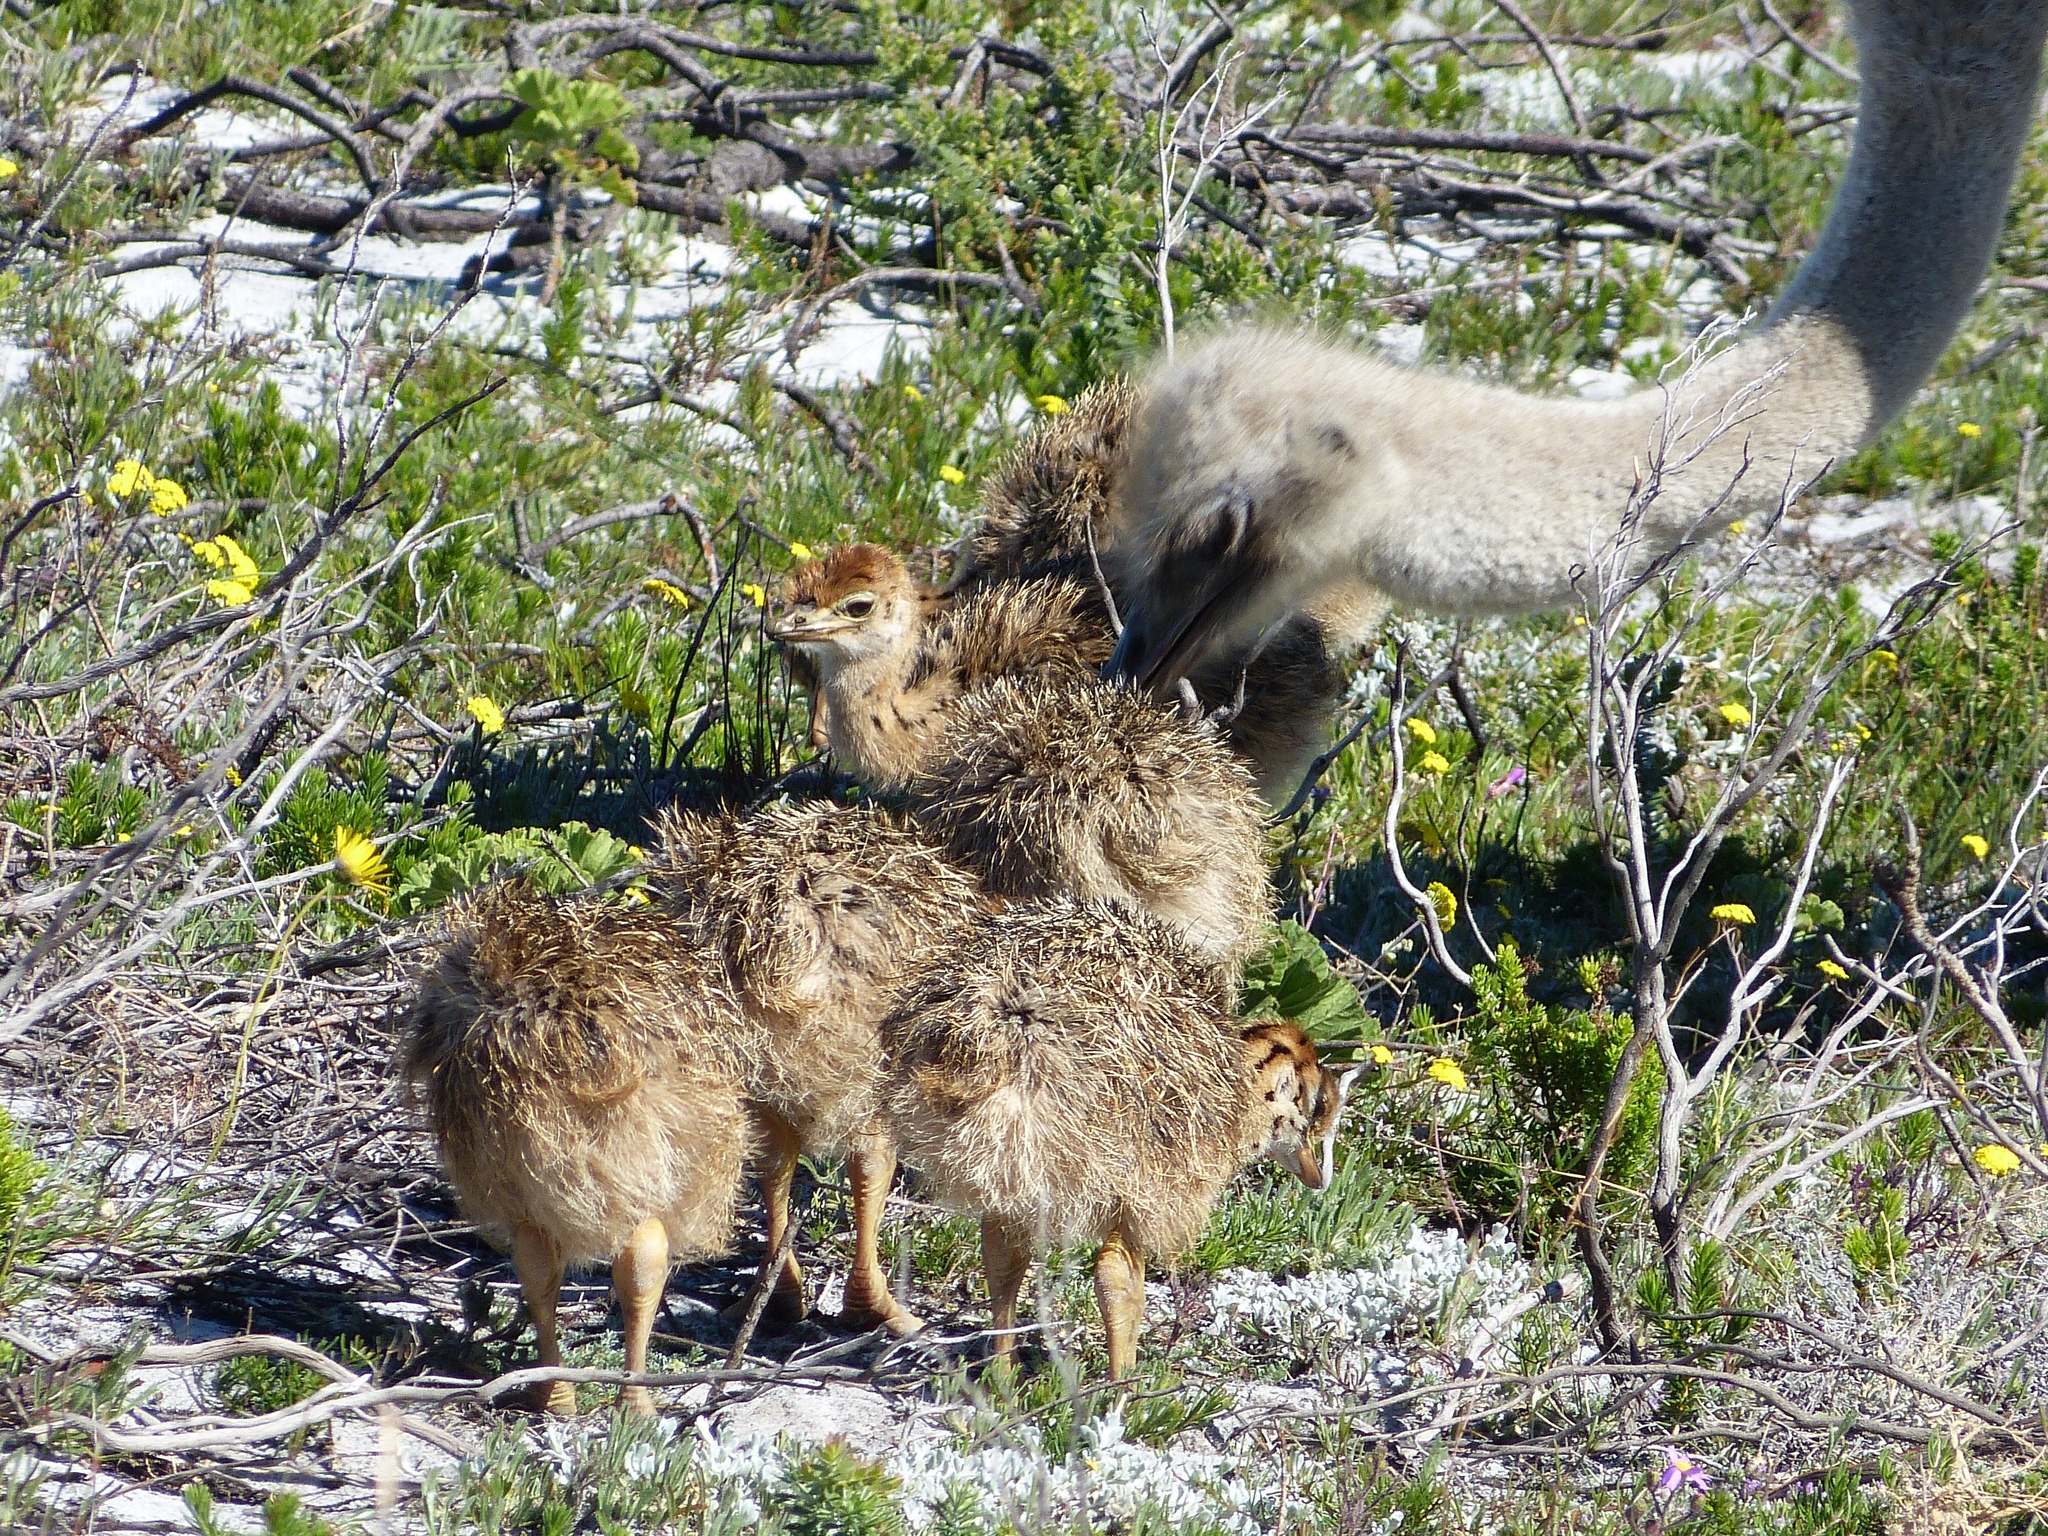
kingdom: Animalia
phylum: Chordata
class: Aves
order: Struthioniformes
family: Struthionidae
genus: Struthio
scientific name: Struthio camelus
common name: Common ostrich
